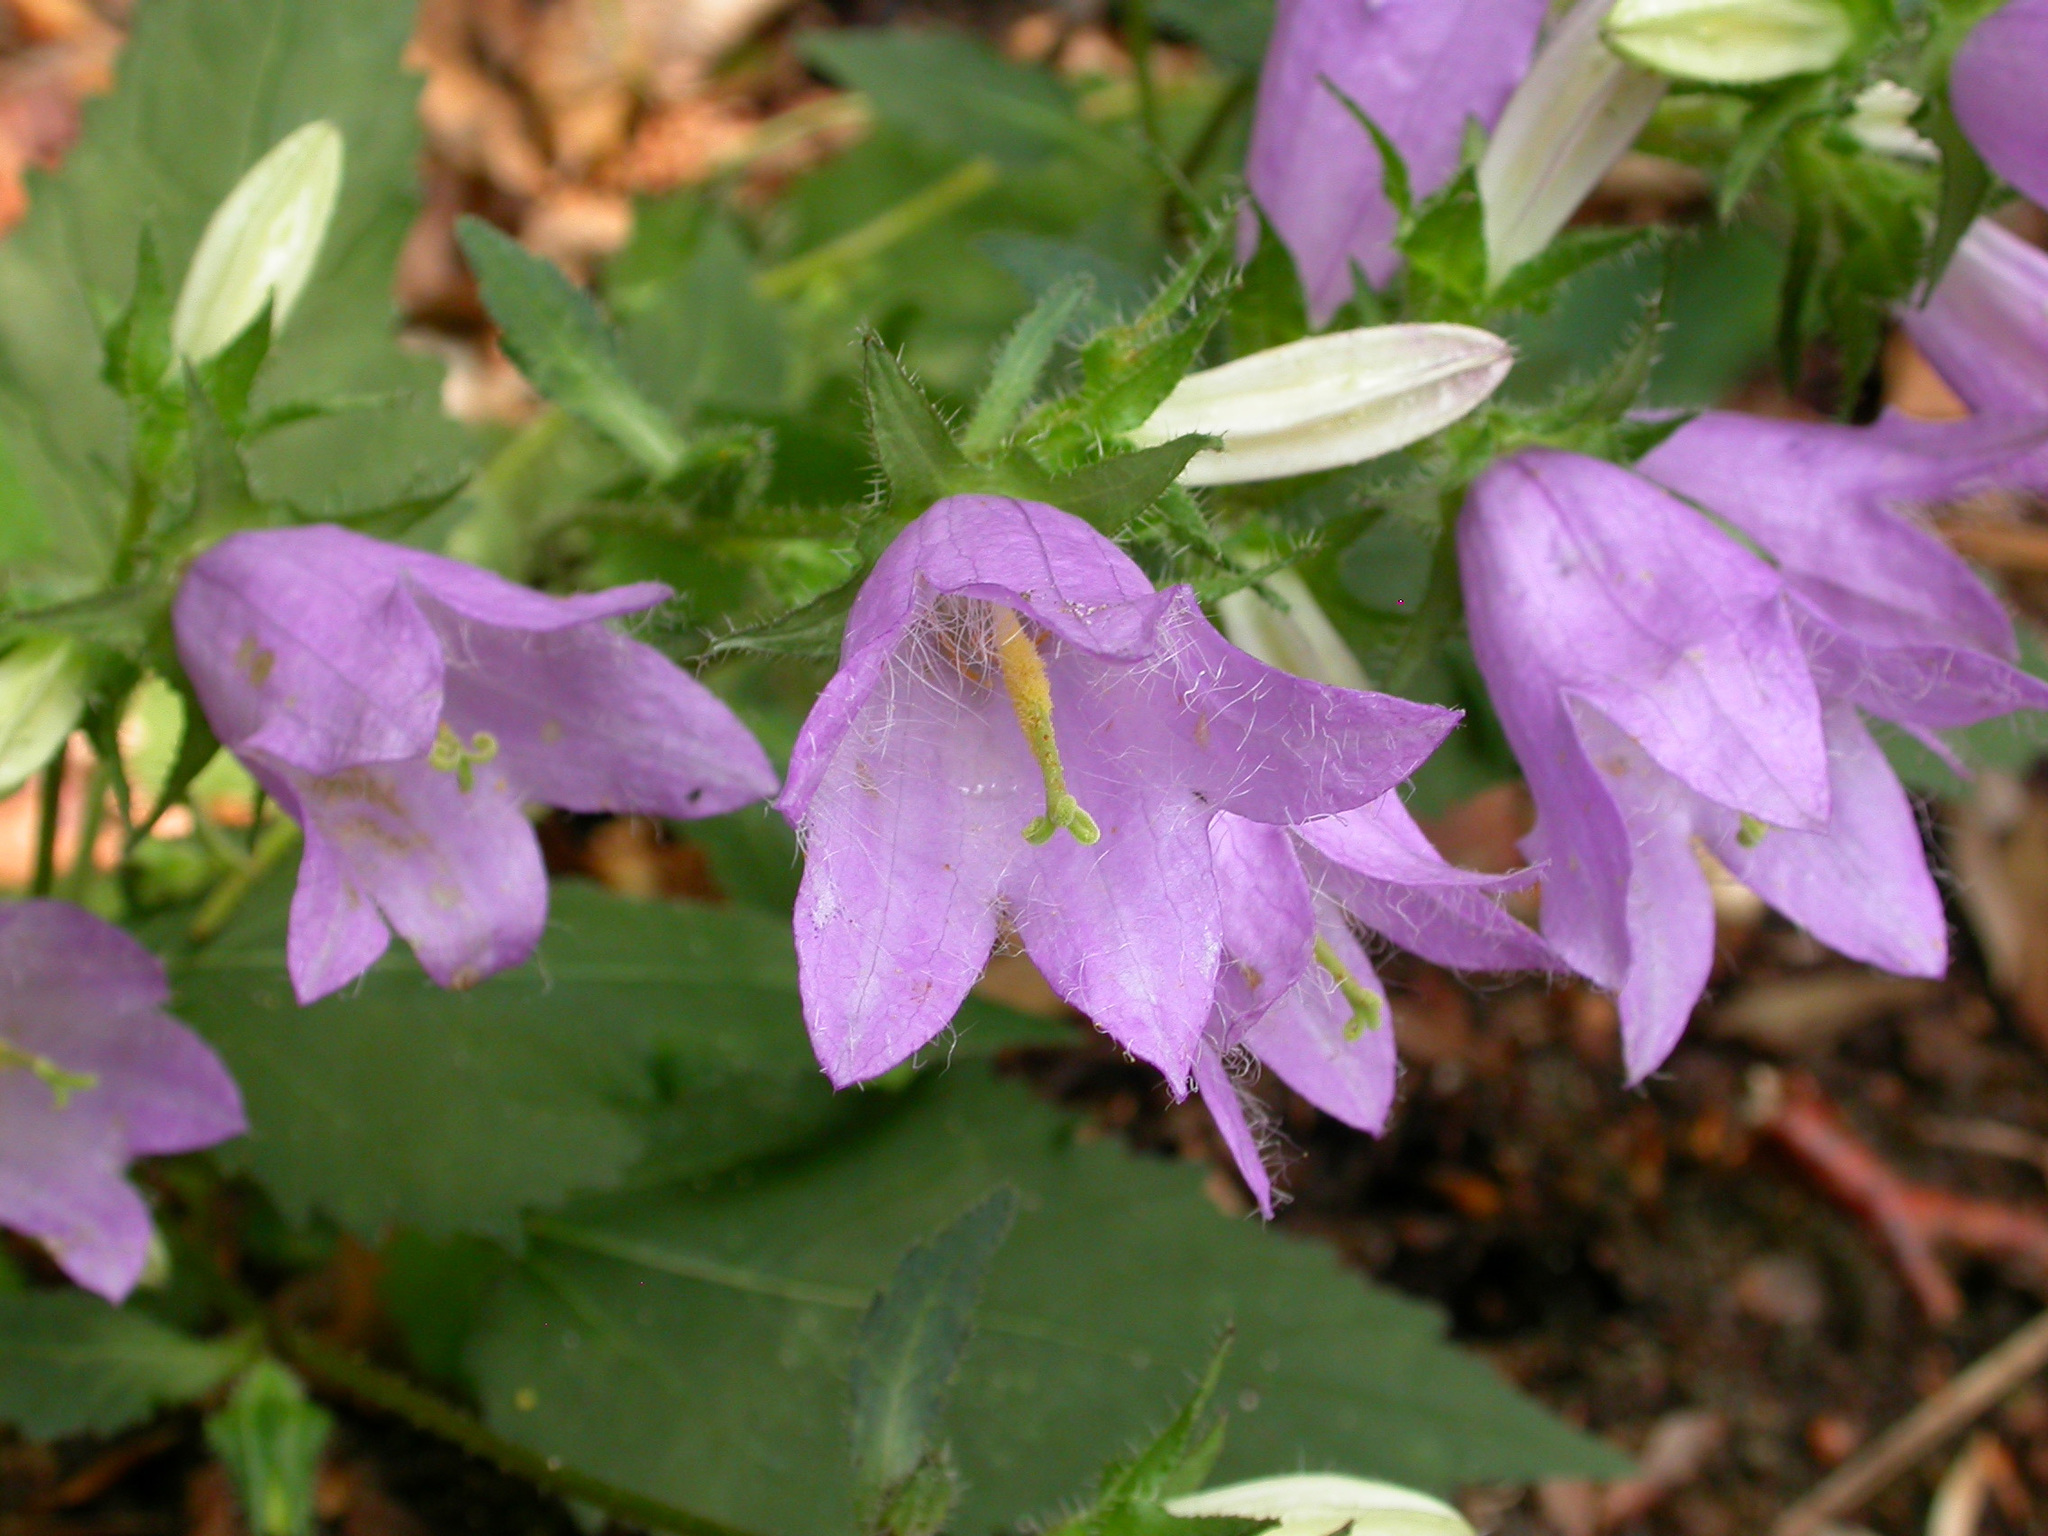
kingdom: Plantae
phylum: Tracheophyta
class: Magnoliopsida
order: Asterales
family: Campanulaceae
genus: Campanula
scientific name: Campanula trachelium
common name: Nettle-leaved bellflower
